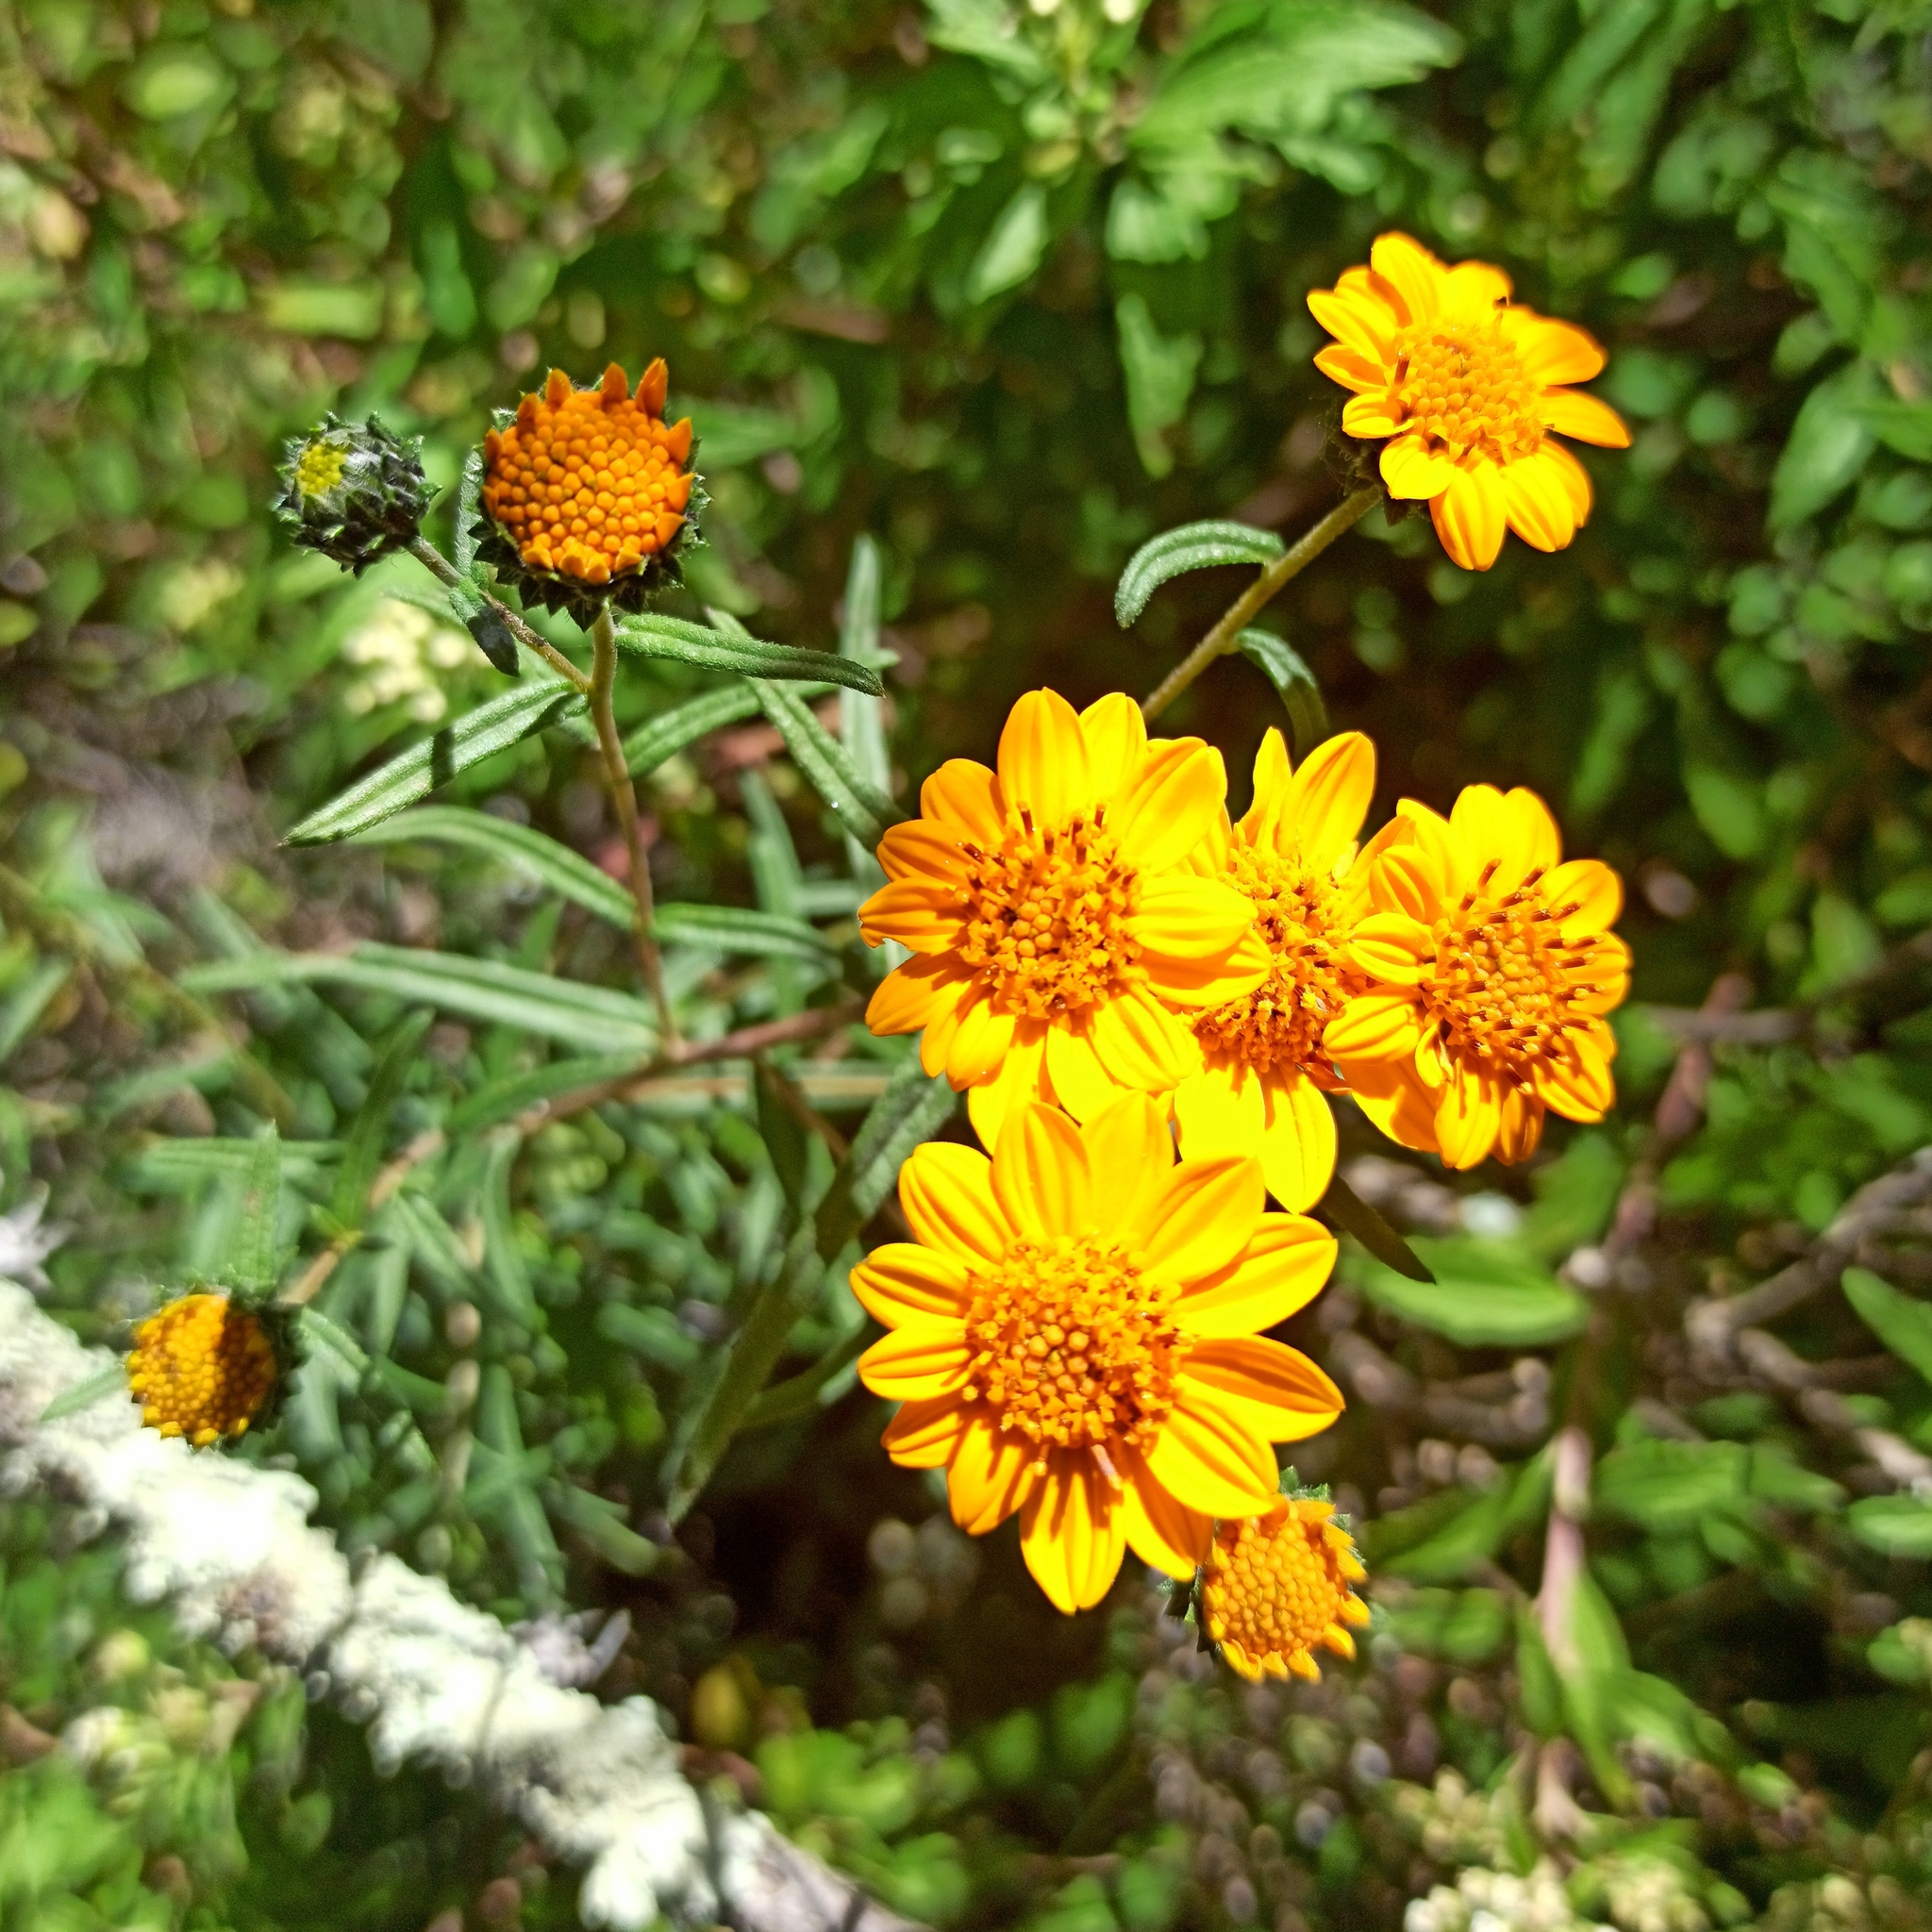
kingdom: Plantae
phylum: Tracheophyta
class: Magnoliopsida
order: Asterales
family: Asteraceae
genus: Aldama
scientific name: Aldama linearis
